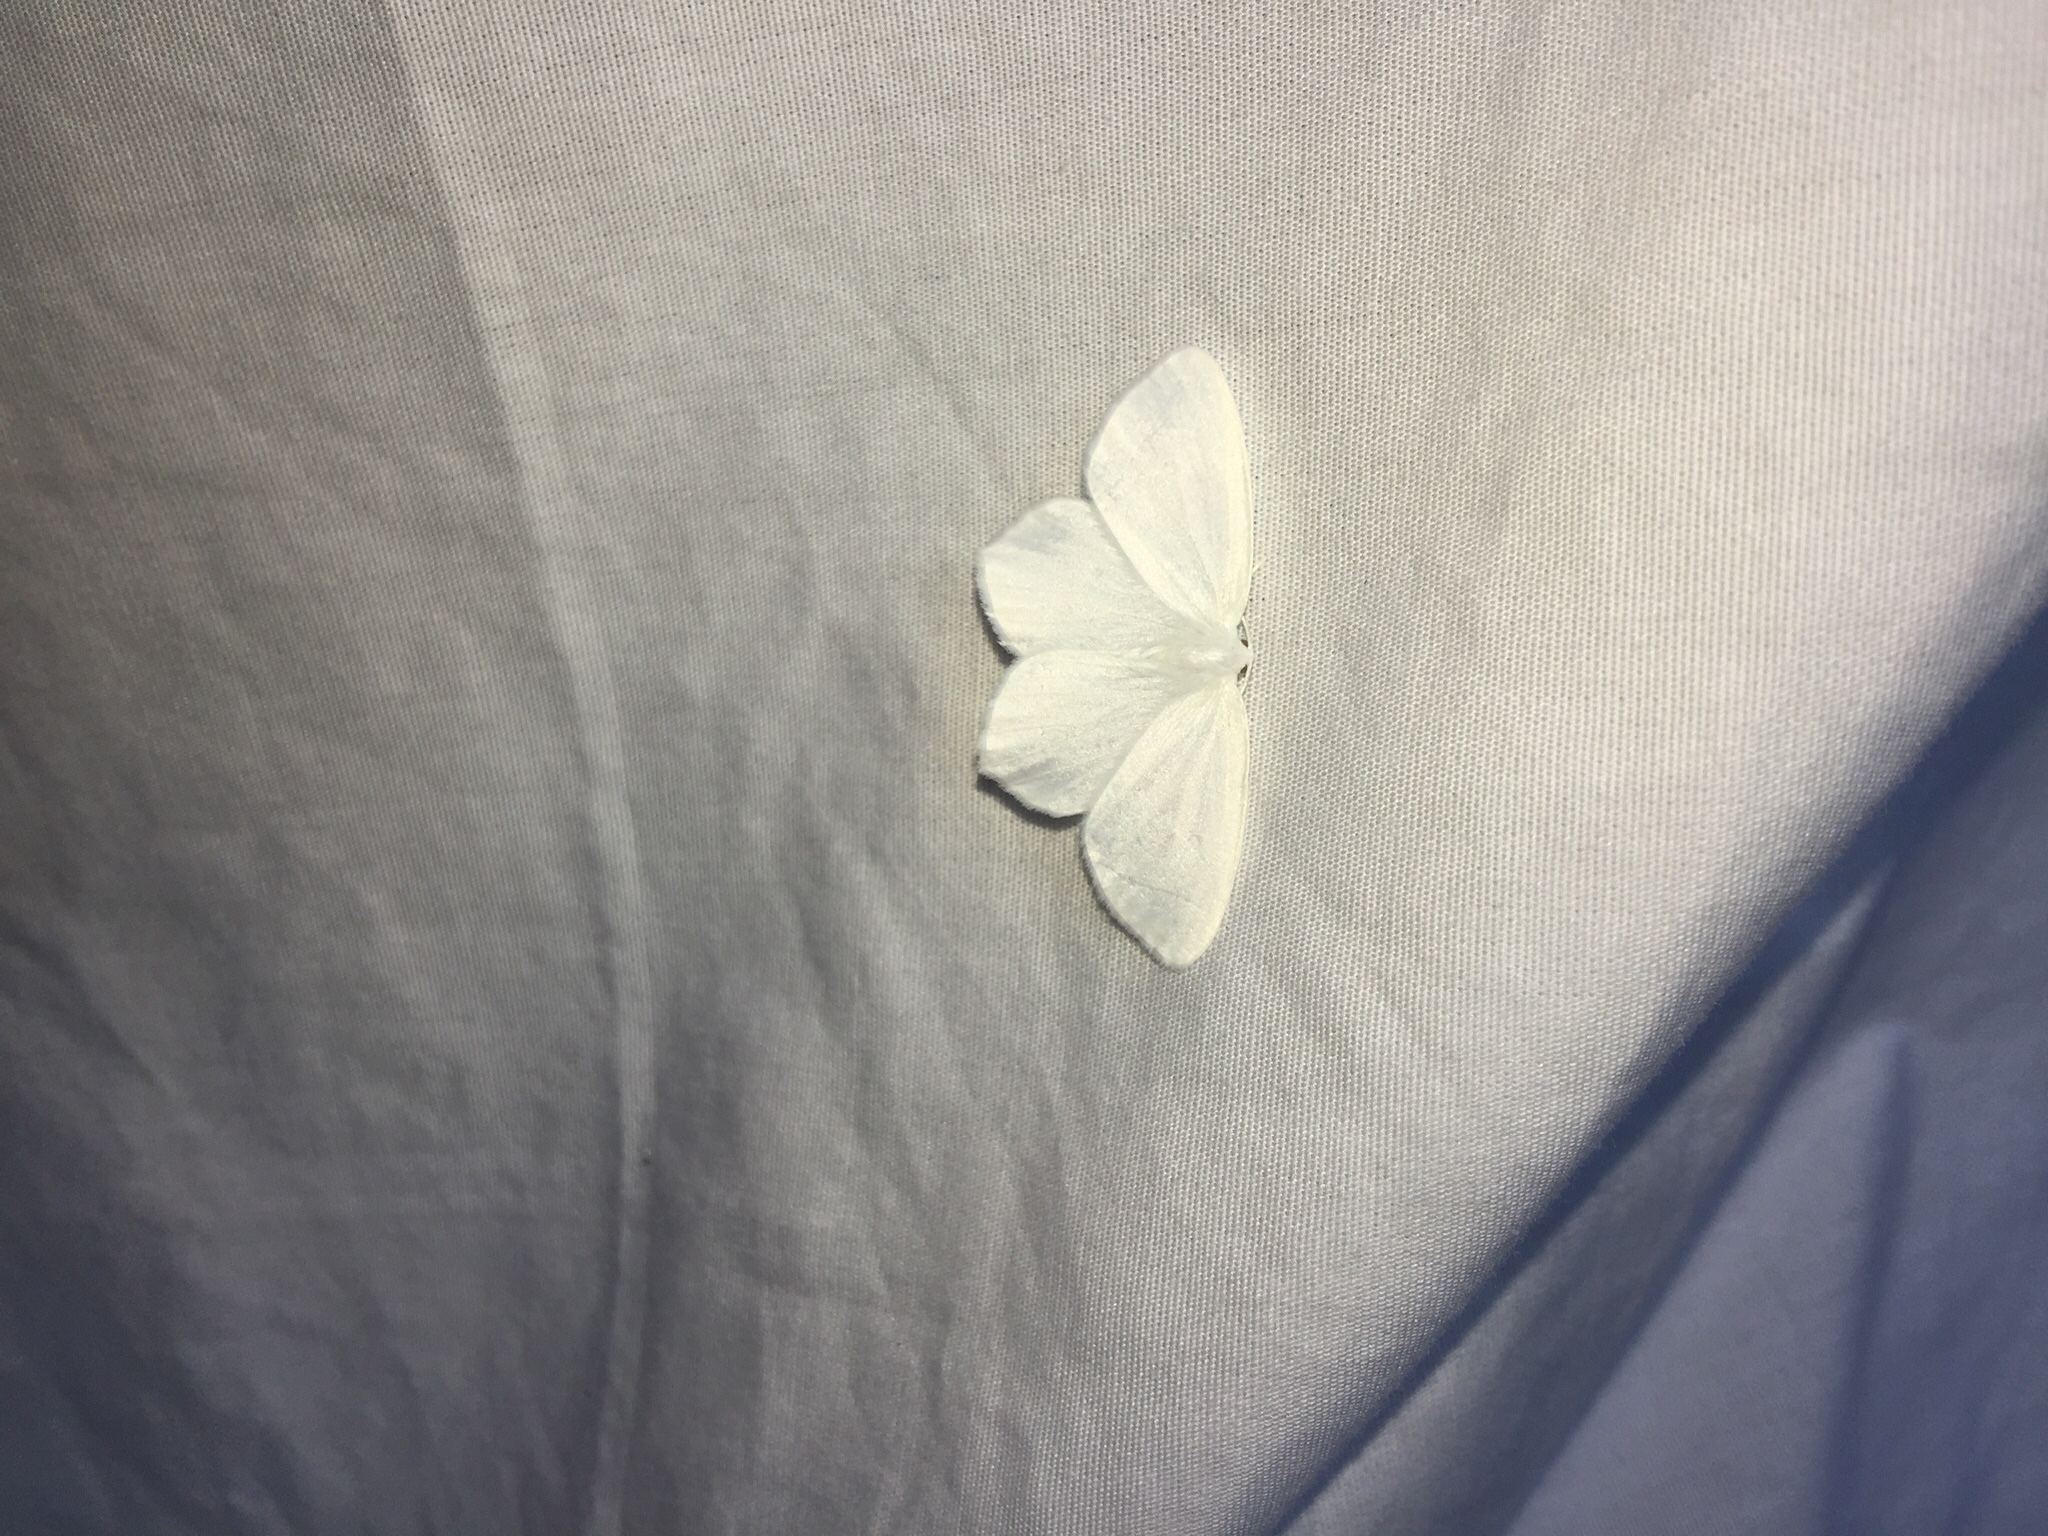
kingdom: Animalia
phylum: Arthropoda
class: Insecta
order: Lepidoptera
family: Geometridae
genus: Eugonobapta
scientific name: Eugonobapta nivosaria
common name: Snowy geometer
